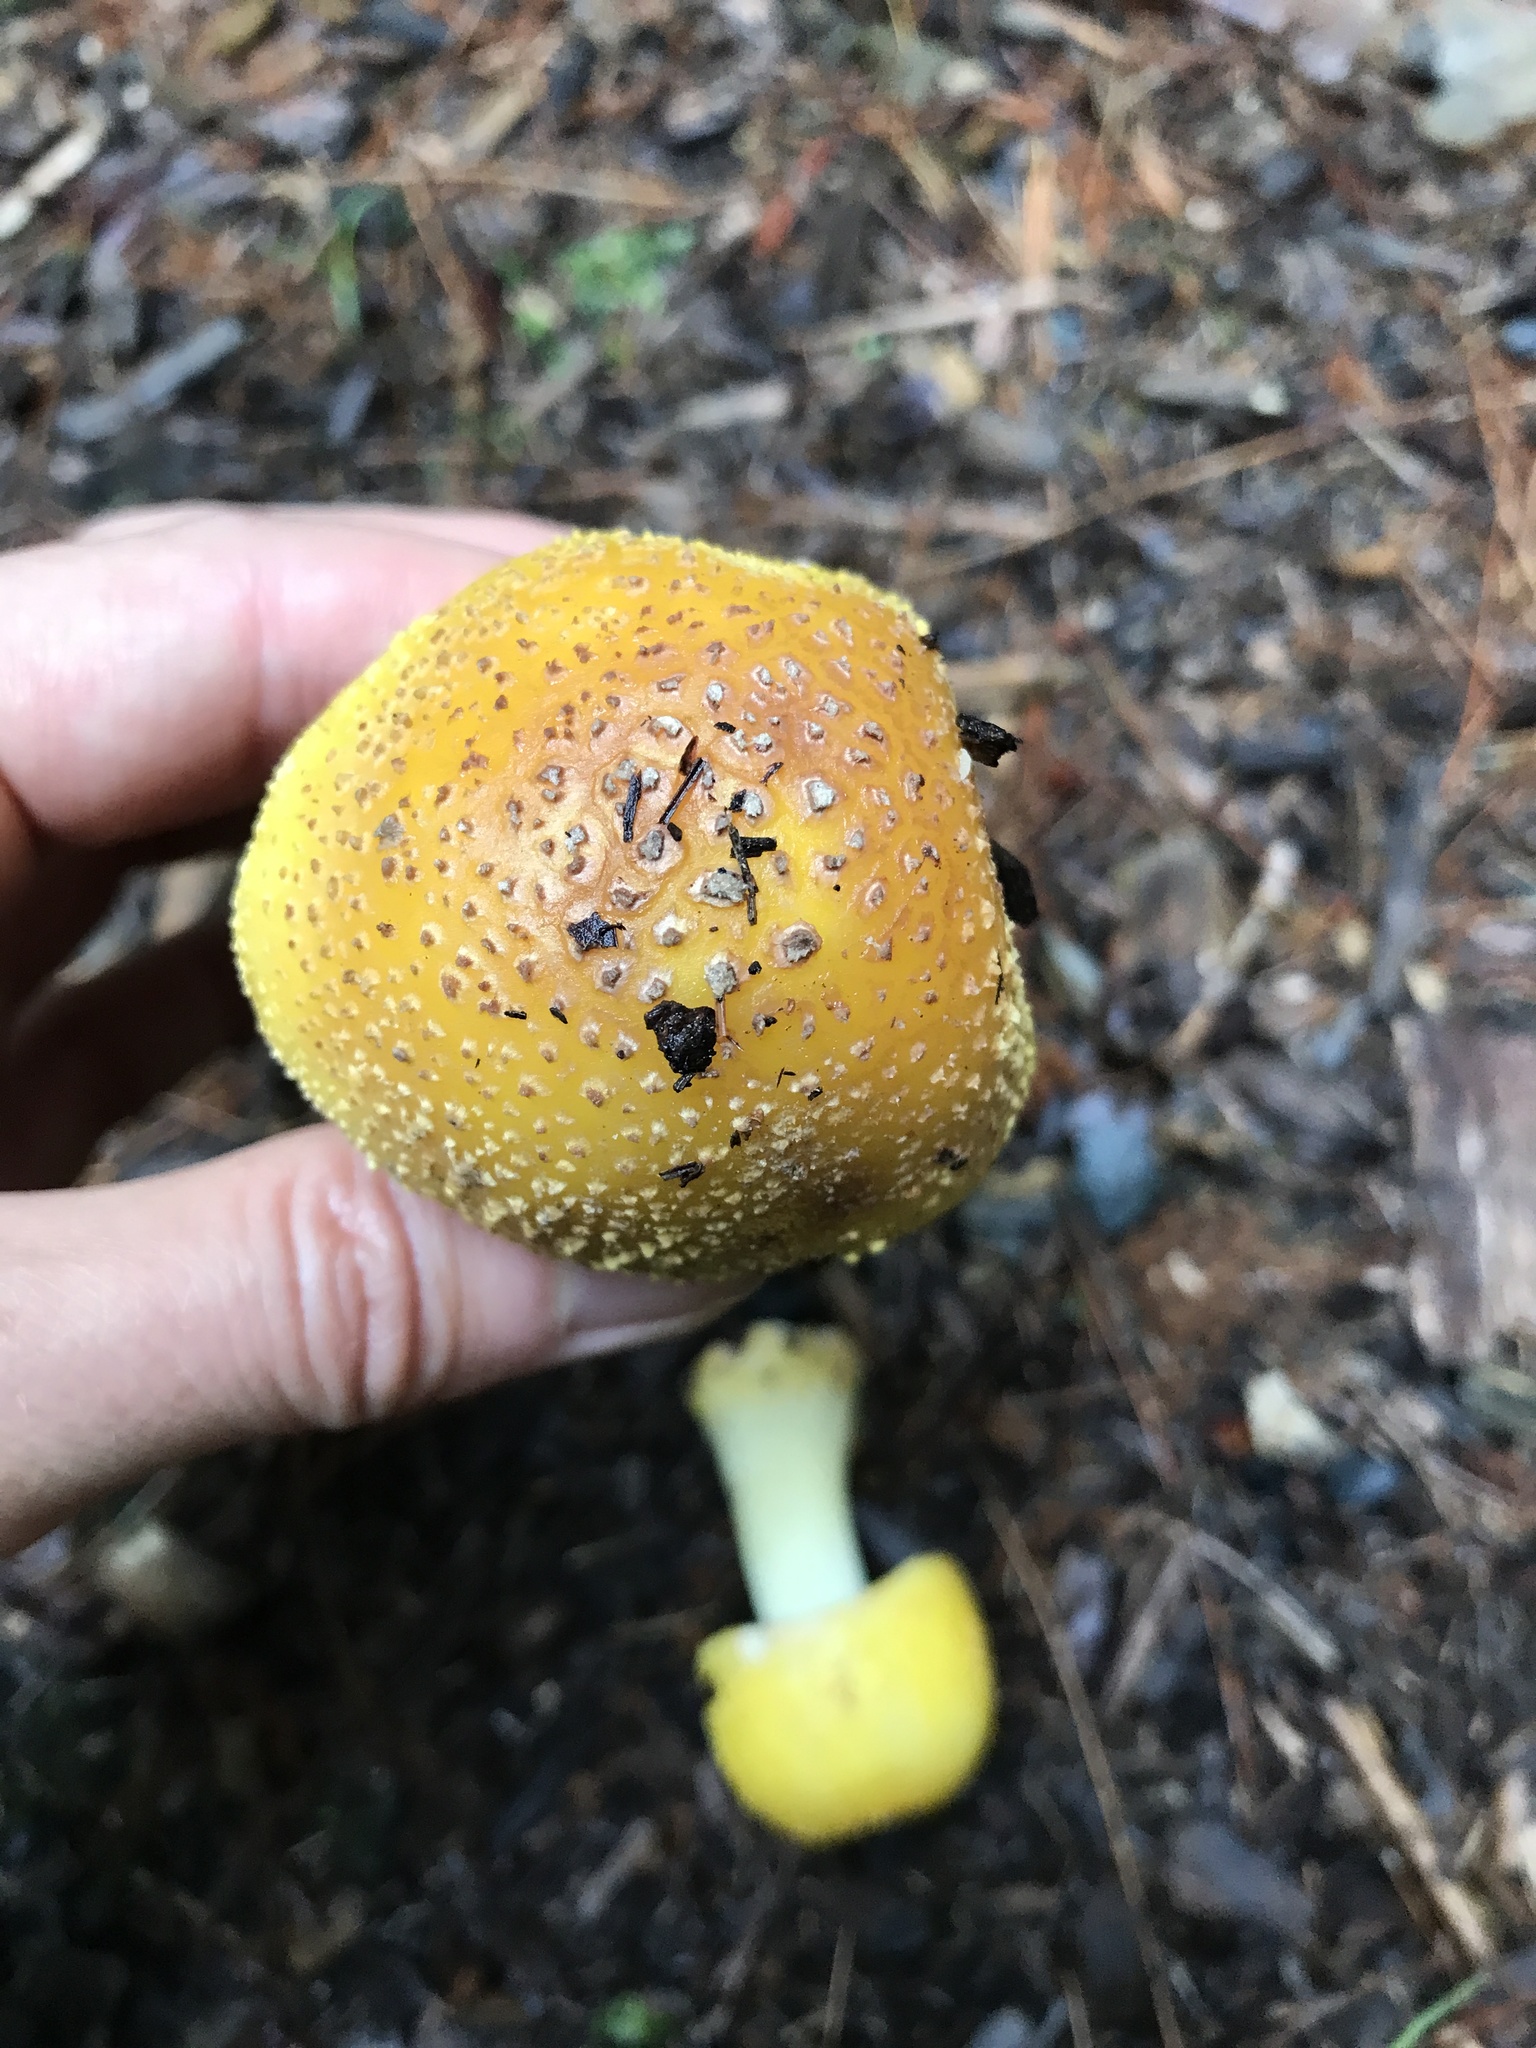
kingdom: Fungi
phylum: Basidiomycota
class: Agaricomycetes
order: Agaricales
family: Amanitaceae
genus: Amanita
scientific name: Amanita flavorubens
